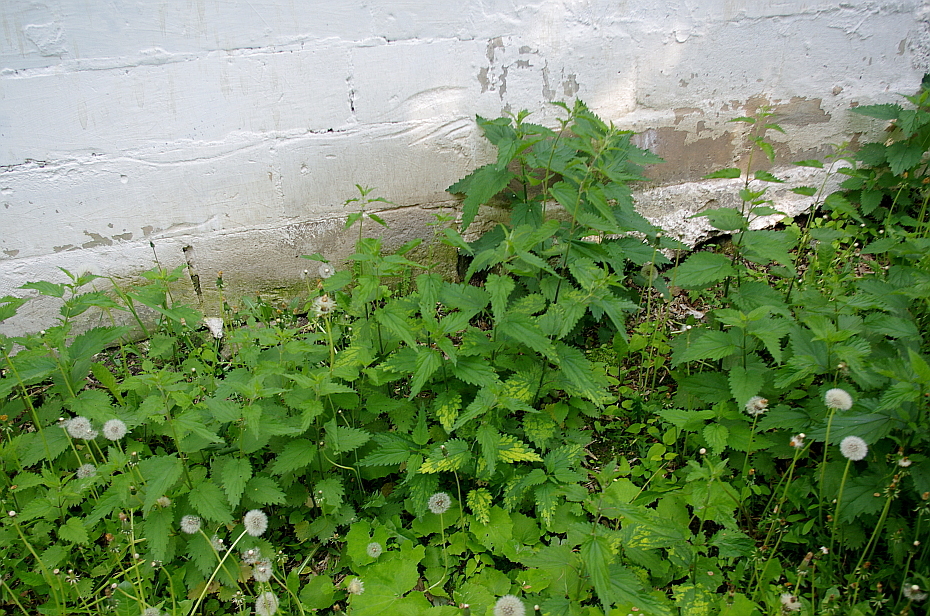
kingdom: Plantae
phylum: Tracheophyta
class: Magnoliopsida
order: Rosales
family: Urticaceae
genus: Urtica
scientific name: Urtica dioica
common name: Common nettle
